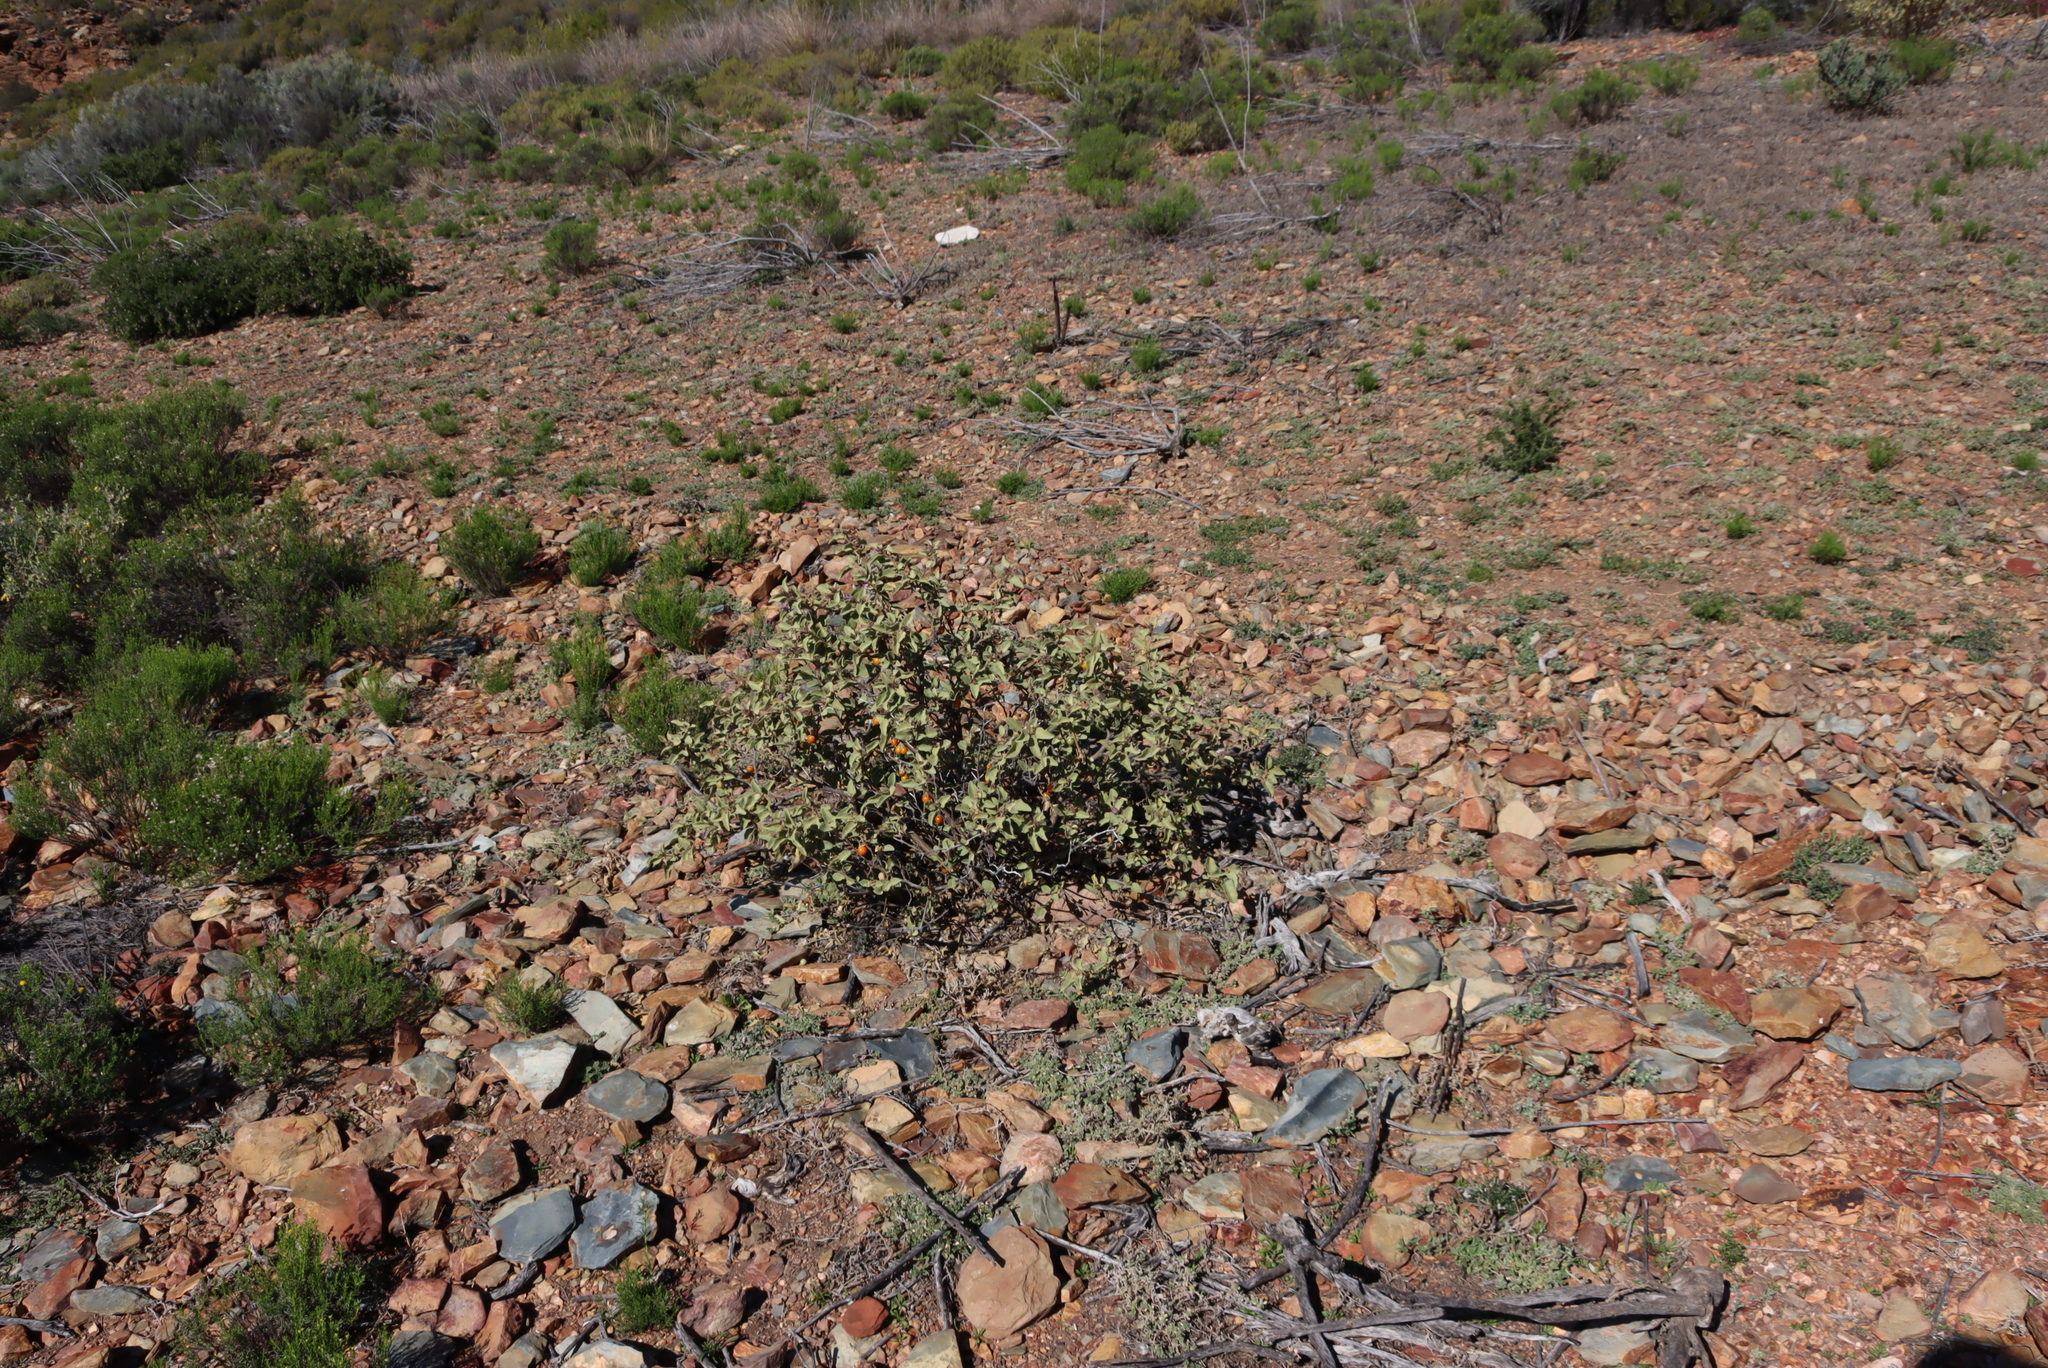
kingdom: Plantae
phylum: Tracheophyta
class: Magnoliopsida
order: Solanales
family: Solanaceae
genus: Solanum
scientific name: Solanum tomentosum
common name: Wild aubergine
